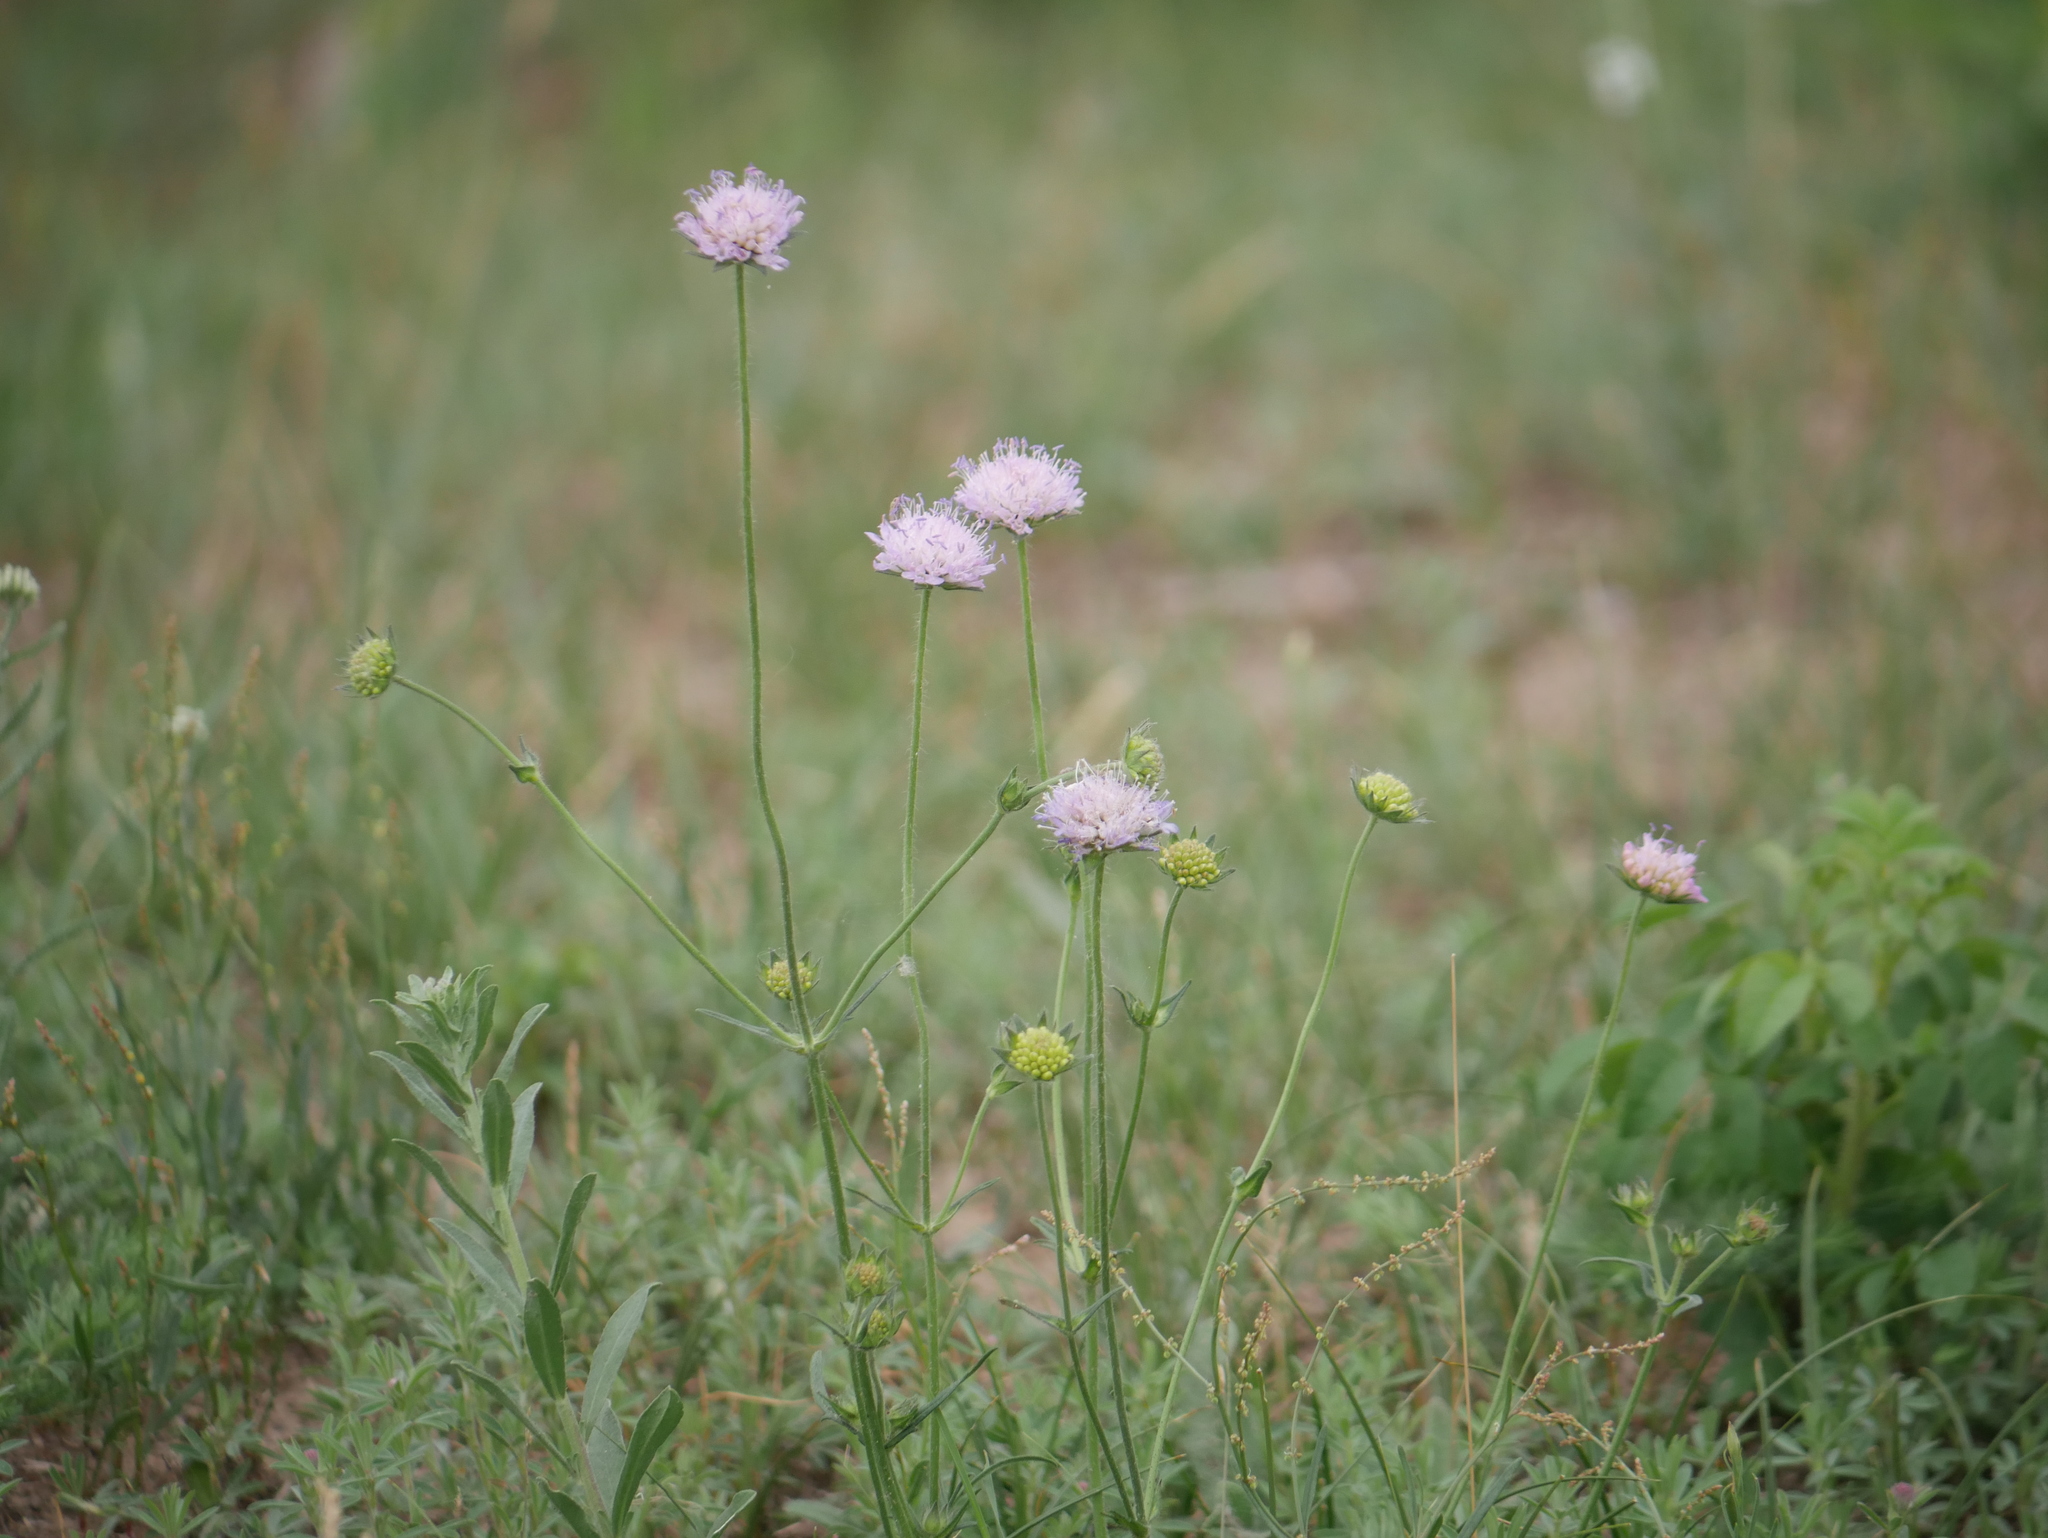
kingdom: Plantae
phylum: Tracheophyta
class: Magnoliopsida
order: Dipsacales
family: Caprifoliaceae
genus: Knautia
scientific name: Knautia arvensis
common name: Field scabiosa
